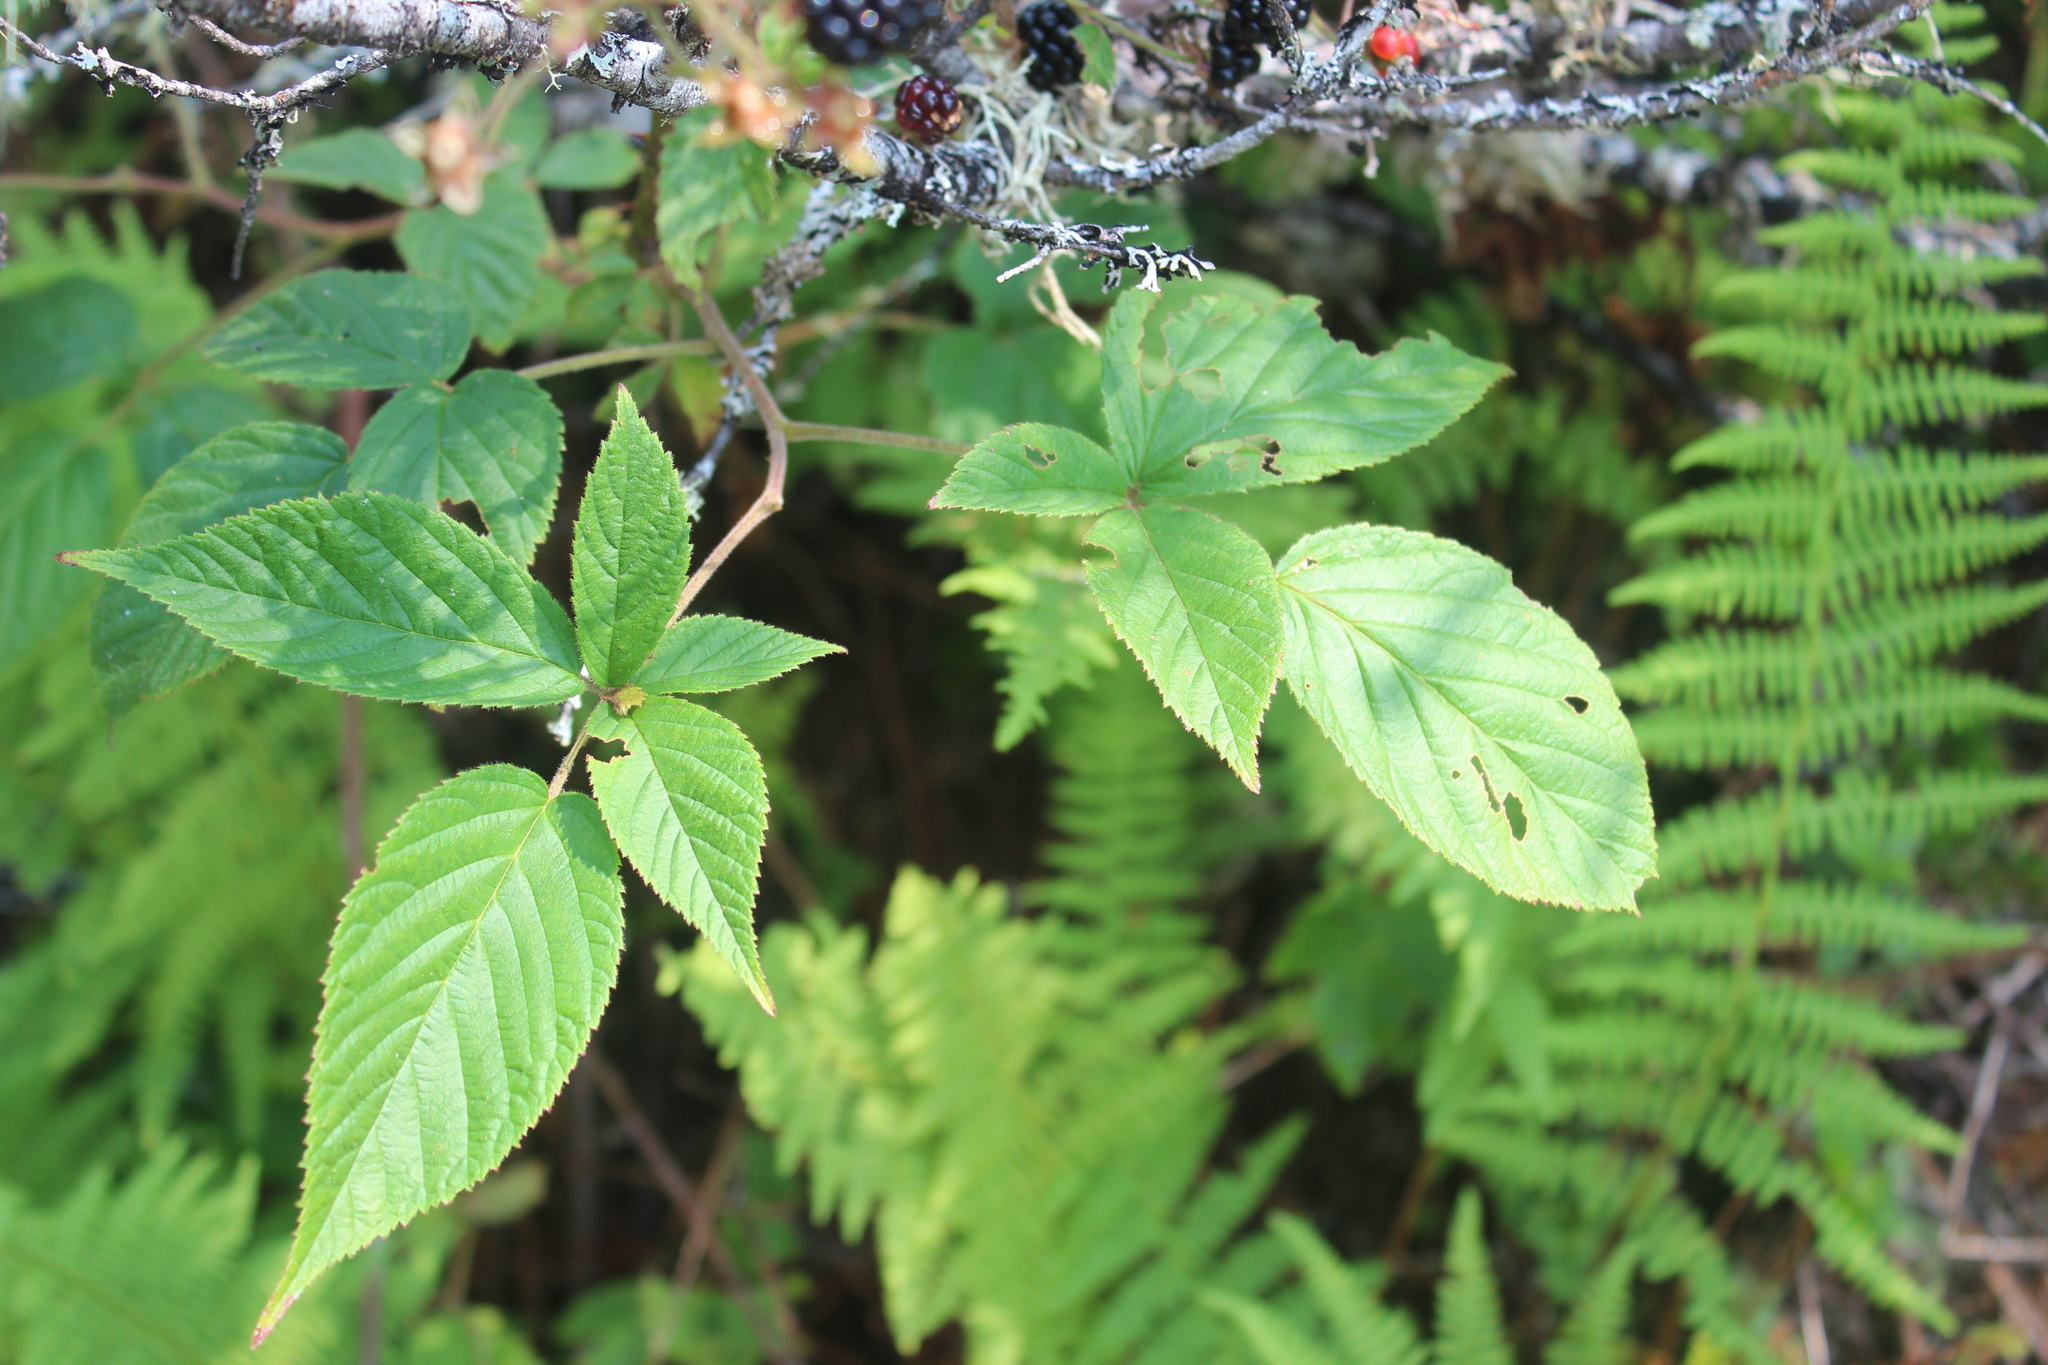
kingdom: Plantae
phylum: Tracheophyta
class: Magnoliopsida
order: Rosales
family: Rosaceae
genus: Rubus
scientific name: Rubus allegheniensis
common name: Allegheny blackberry
